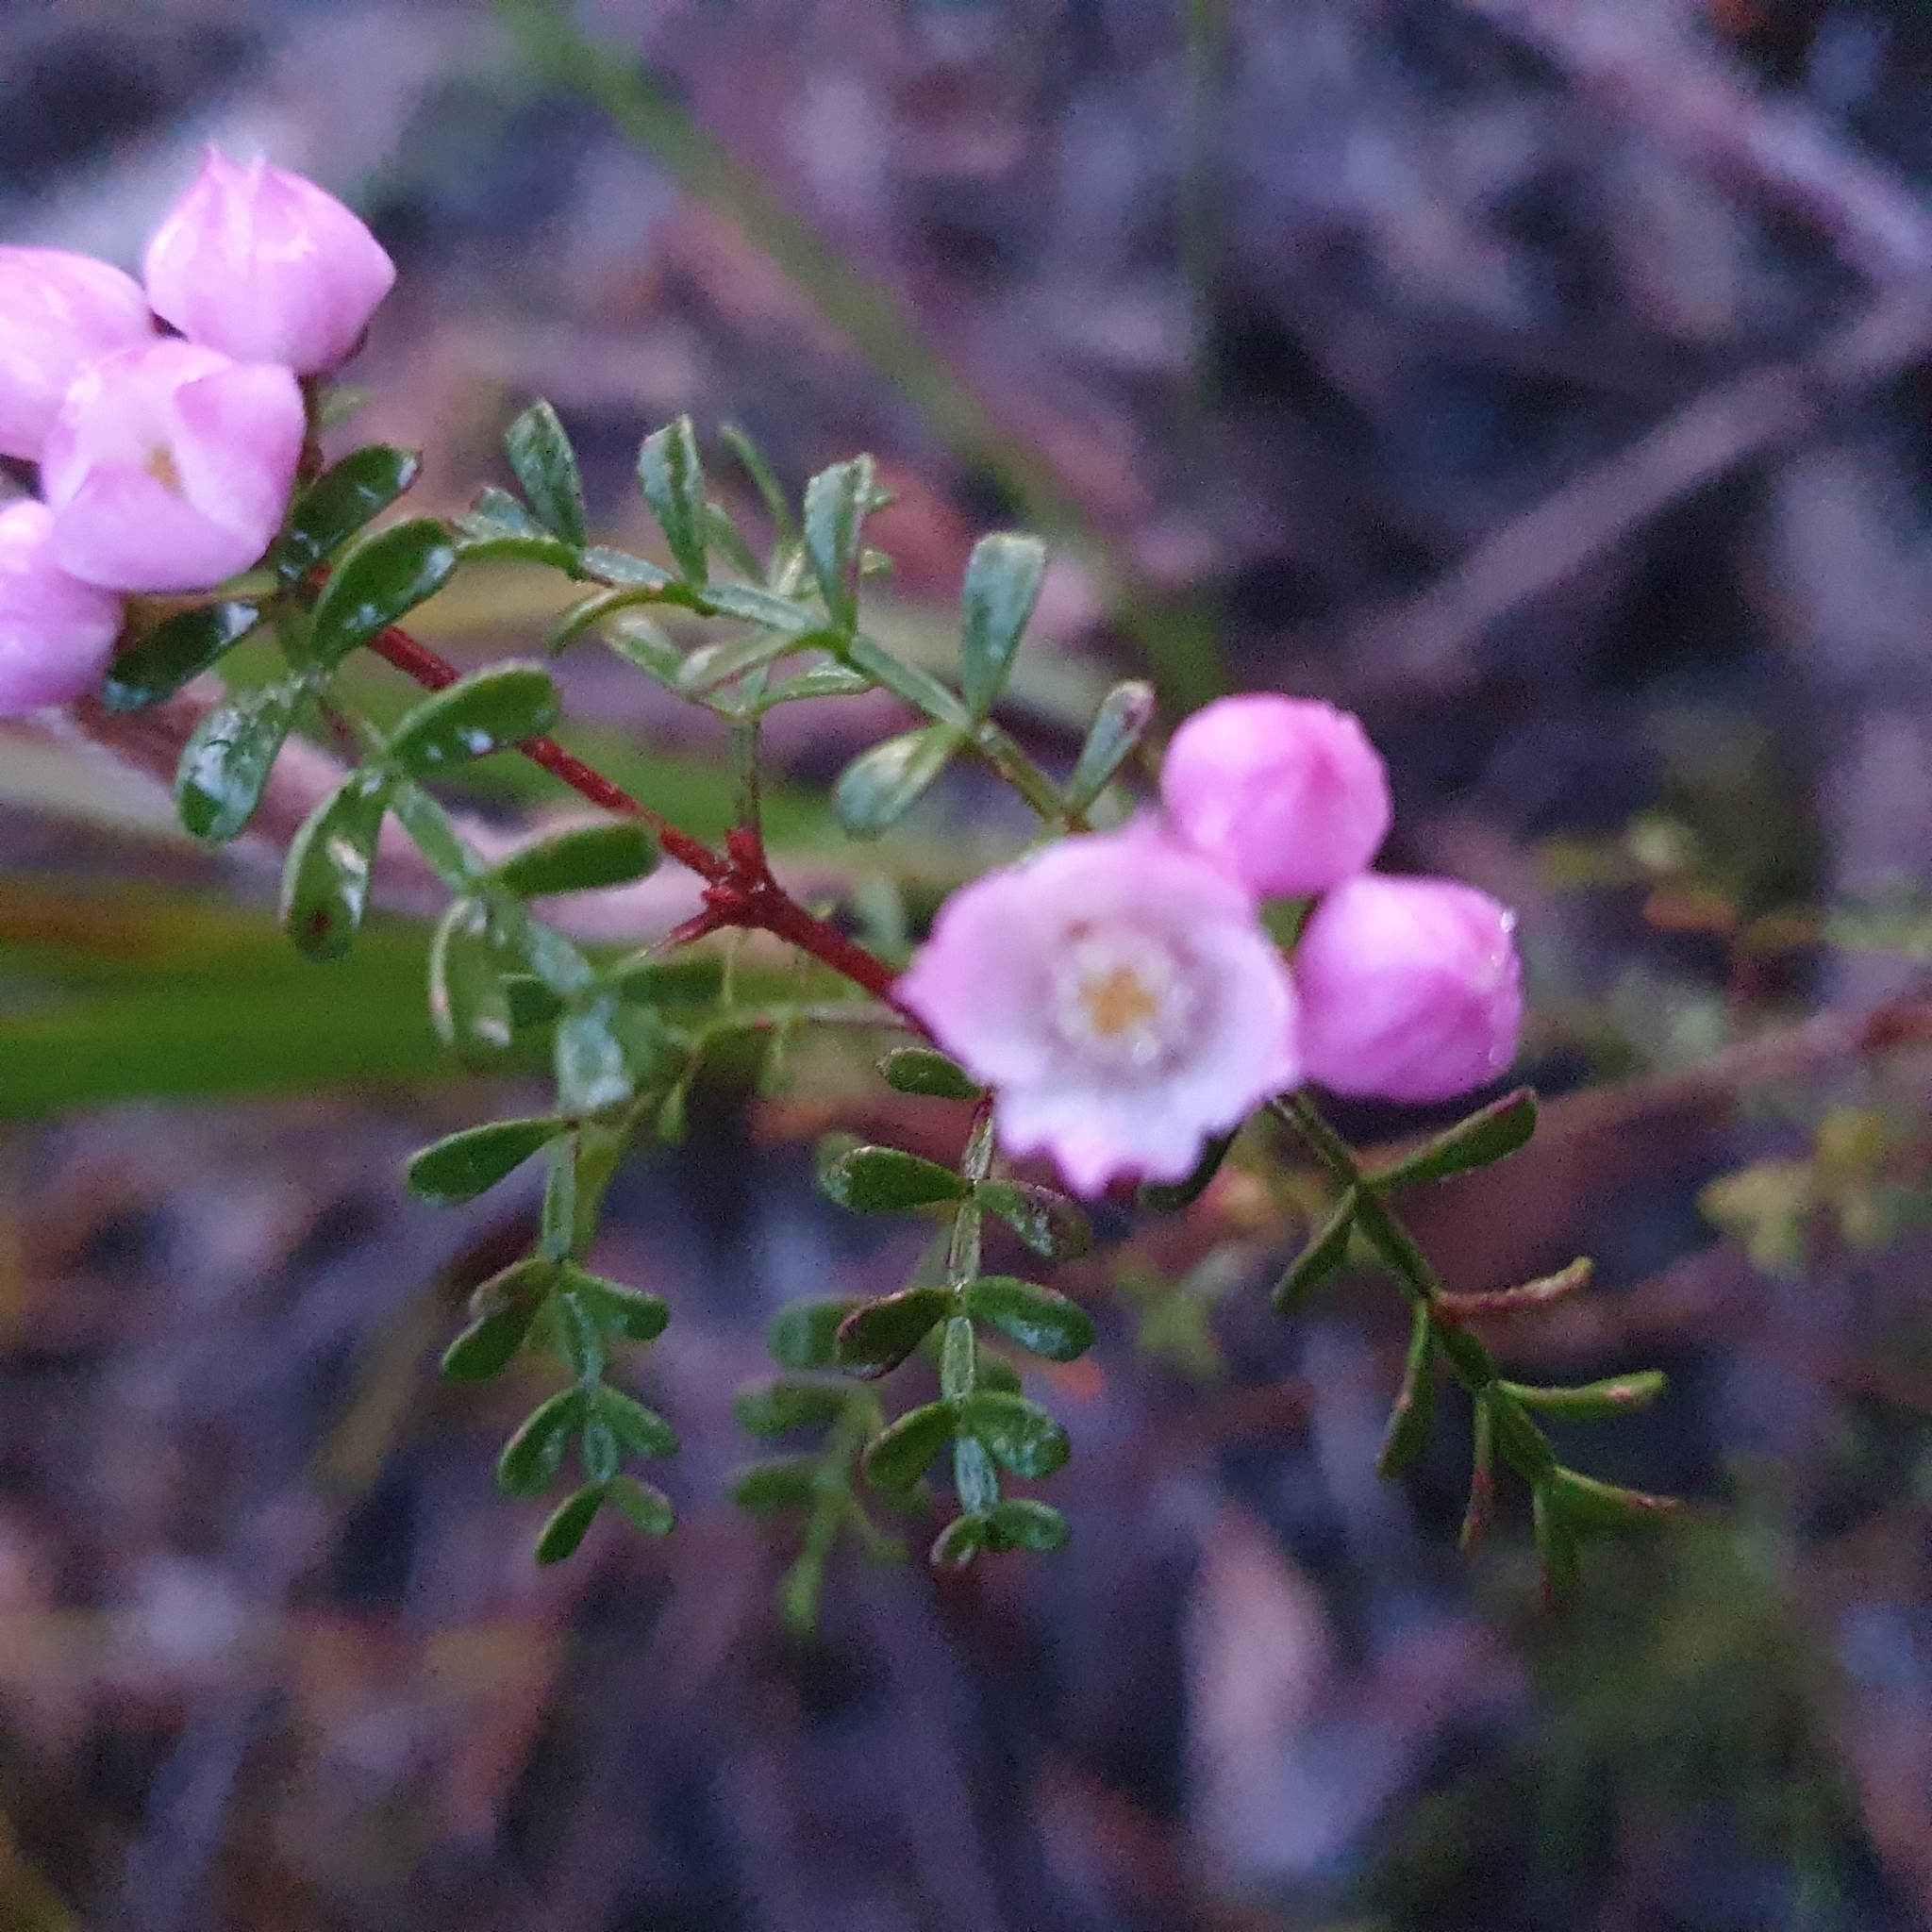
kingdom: Plantae
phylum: Tracheophyta
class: Magnoliopsida
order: Sapindales
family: Rutaceae
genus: Boronia
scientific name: Boronia microphylla
